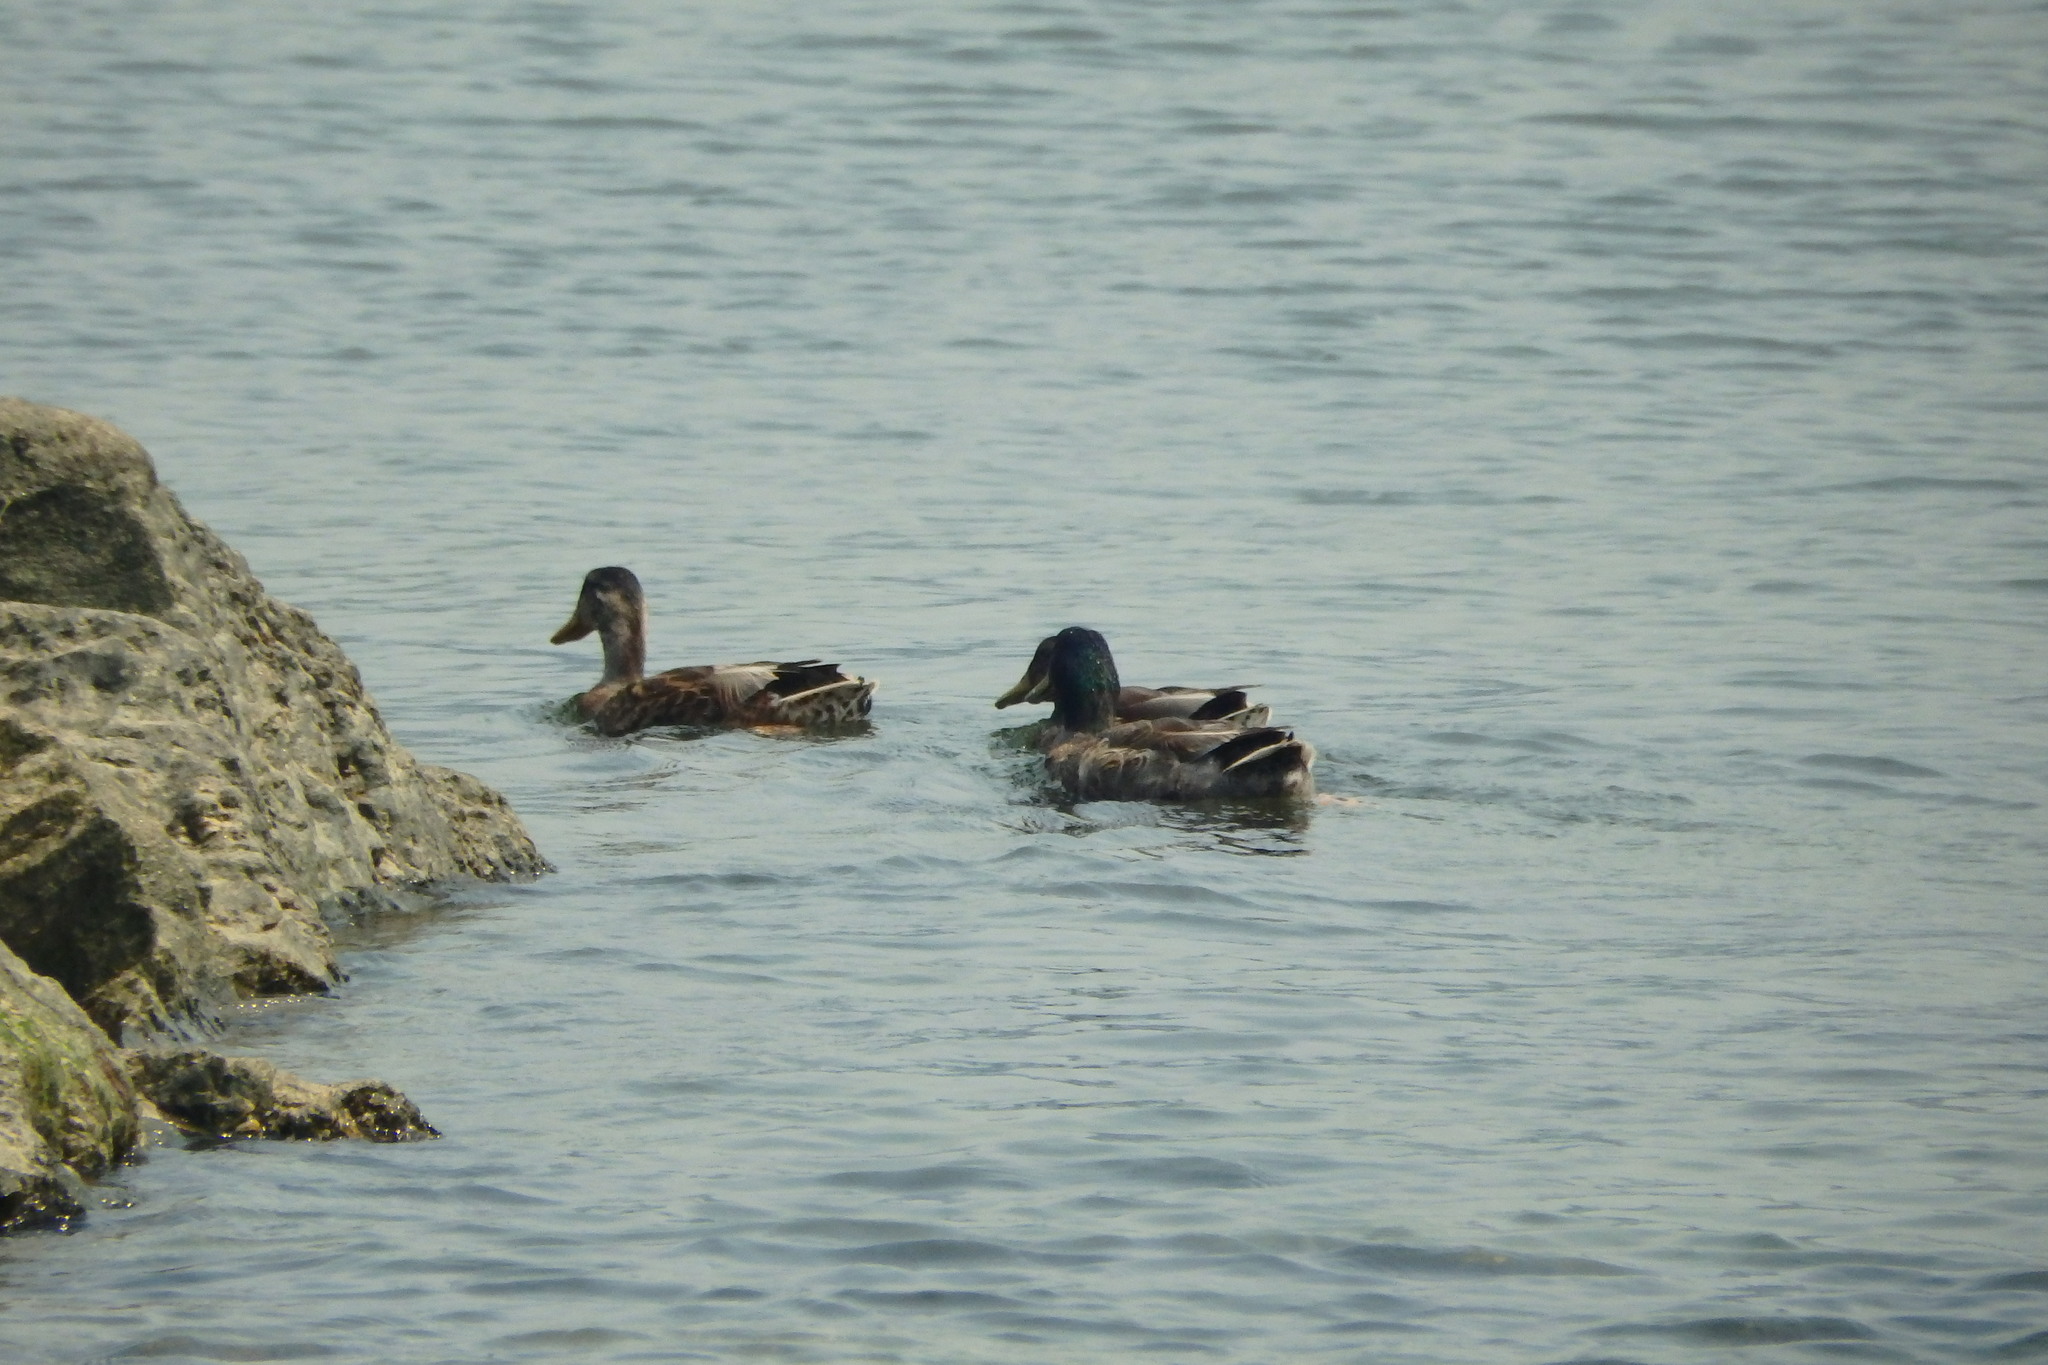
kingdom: Animalia
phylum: Chordata
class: Aves
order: Anseriformes
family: Anatidae
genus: Anas
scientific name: Anas platyrhynchos
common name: Mallard
